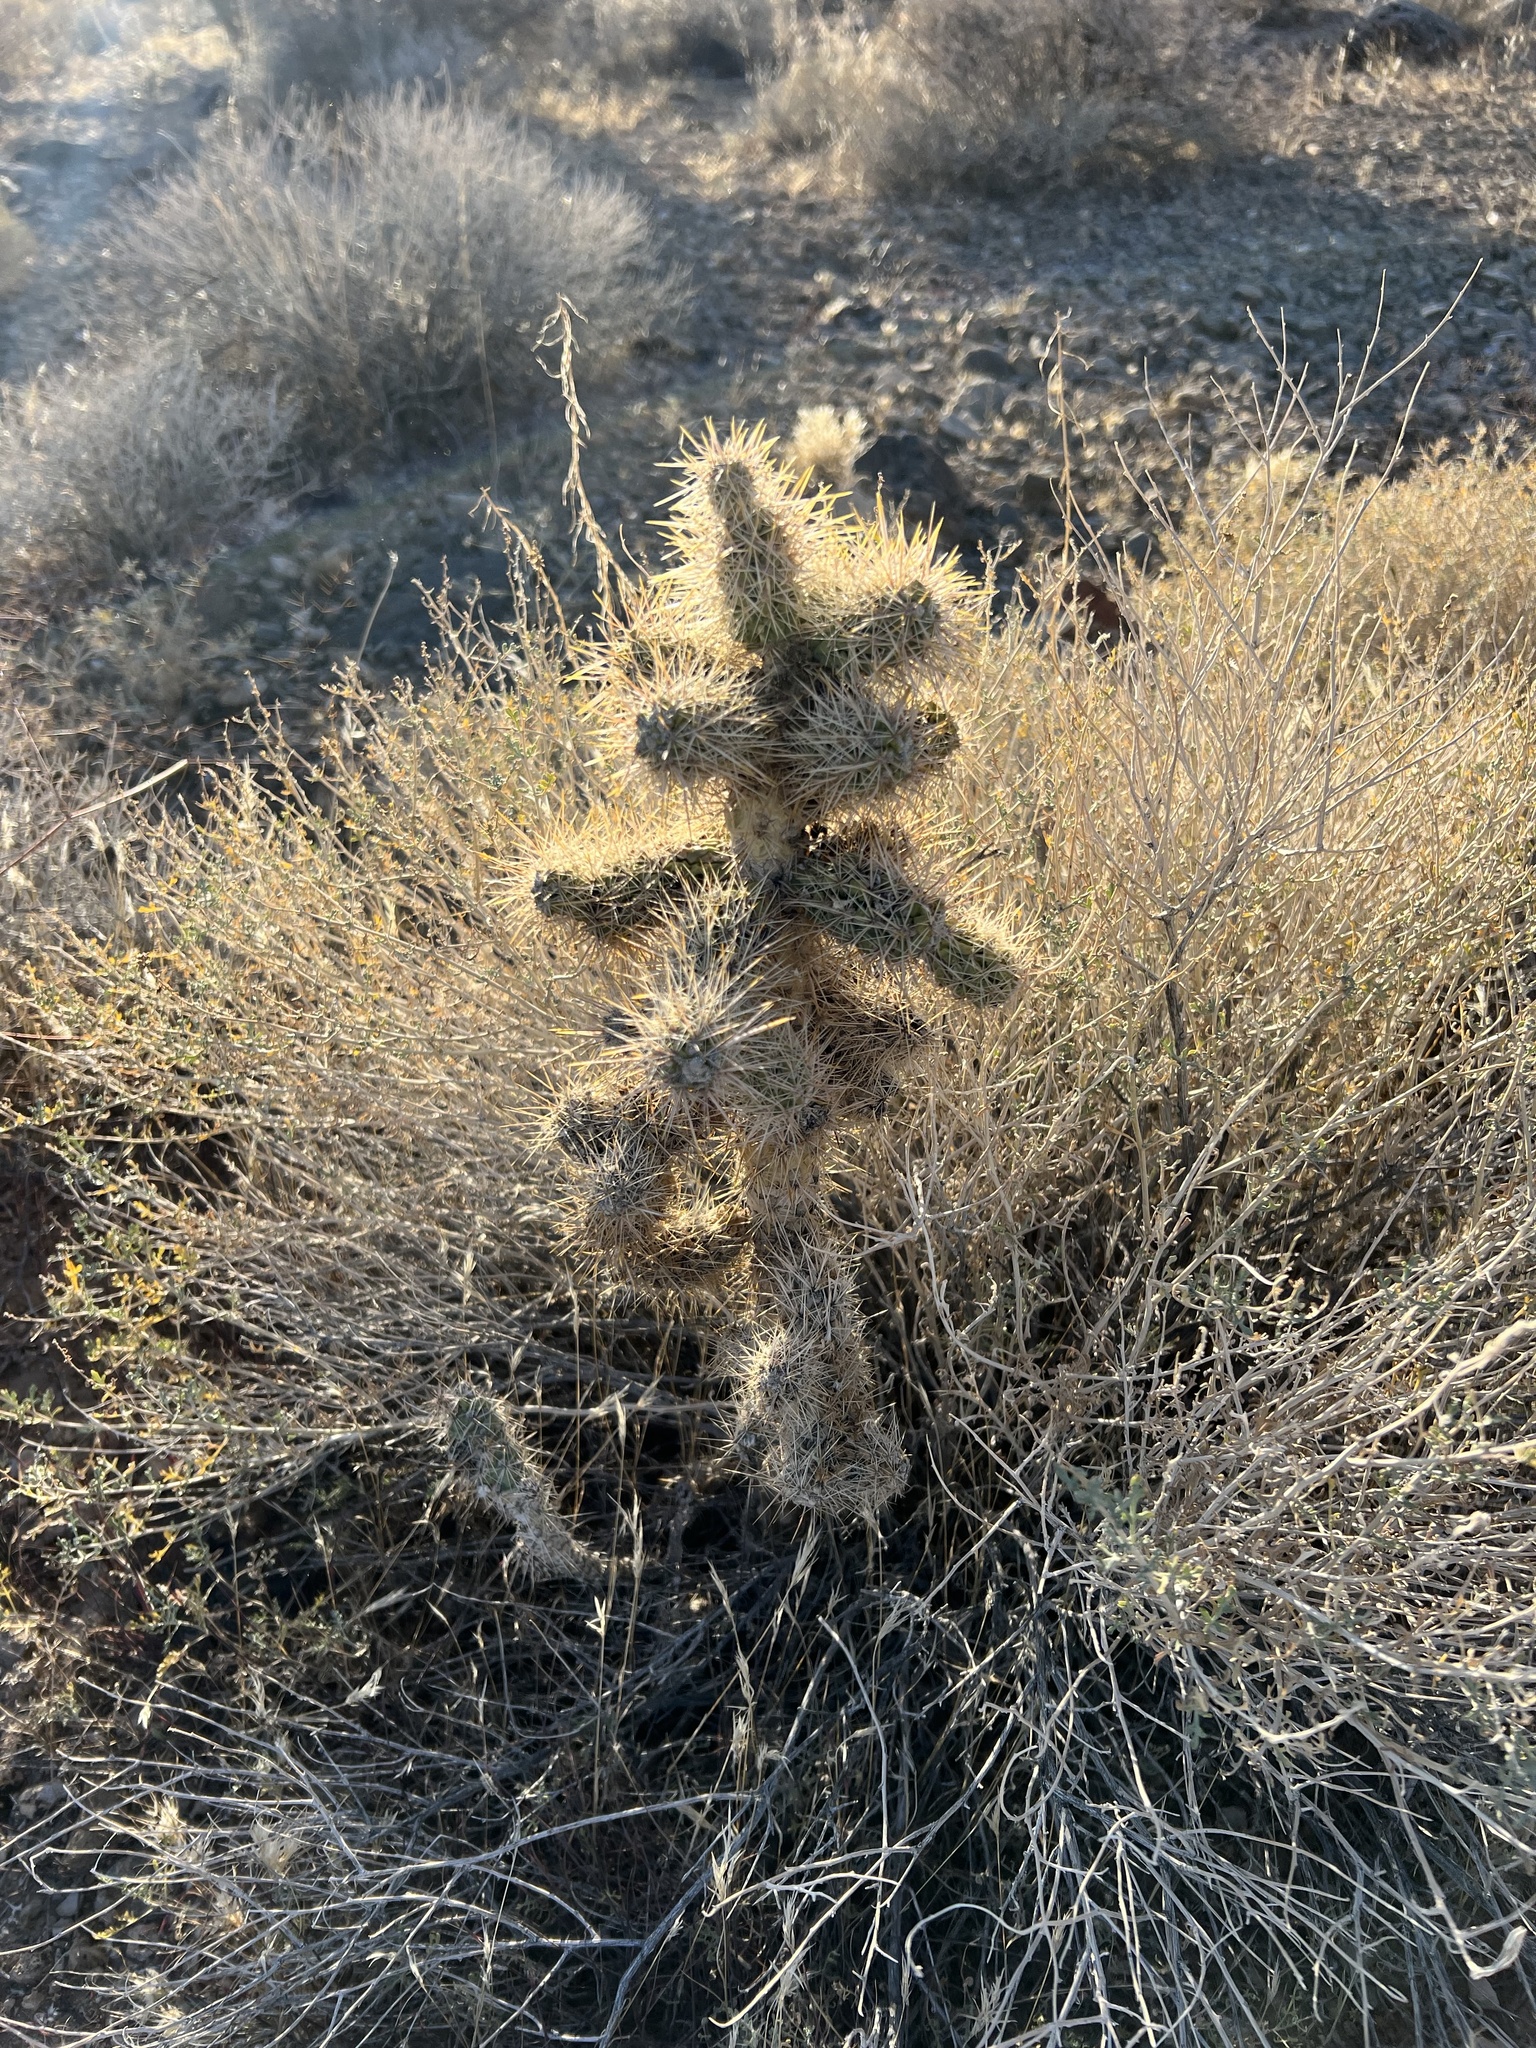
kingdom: Plantae
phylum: Tracheophyta
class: Magnoliopsida
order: Caryophyllales
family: Cactaceae
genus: Cylindropuntia
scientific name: Cylindropuntia echinocarpa
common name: Ground cholla
